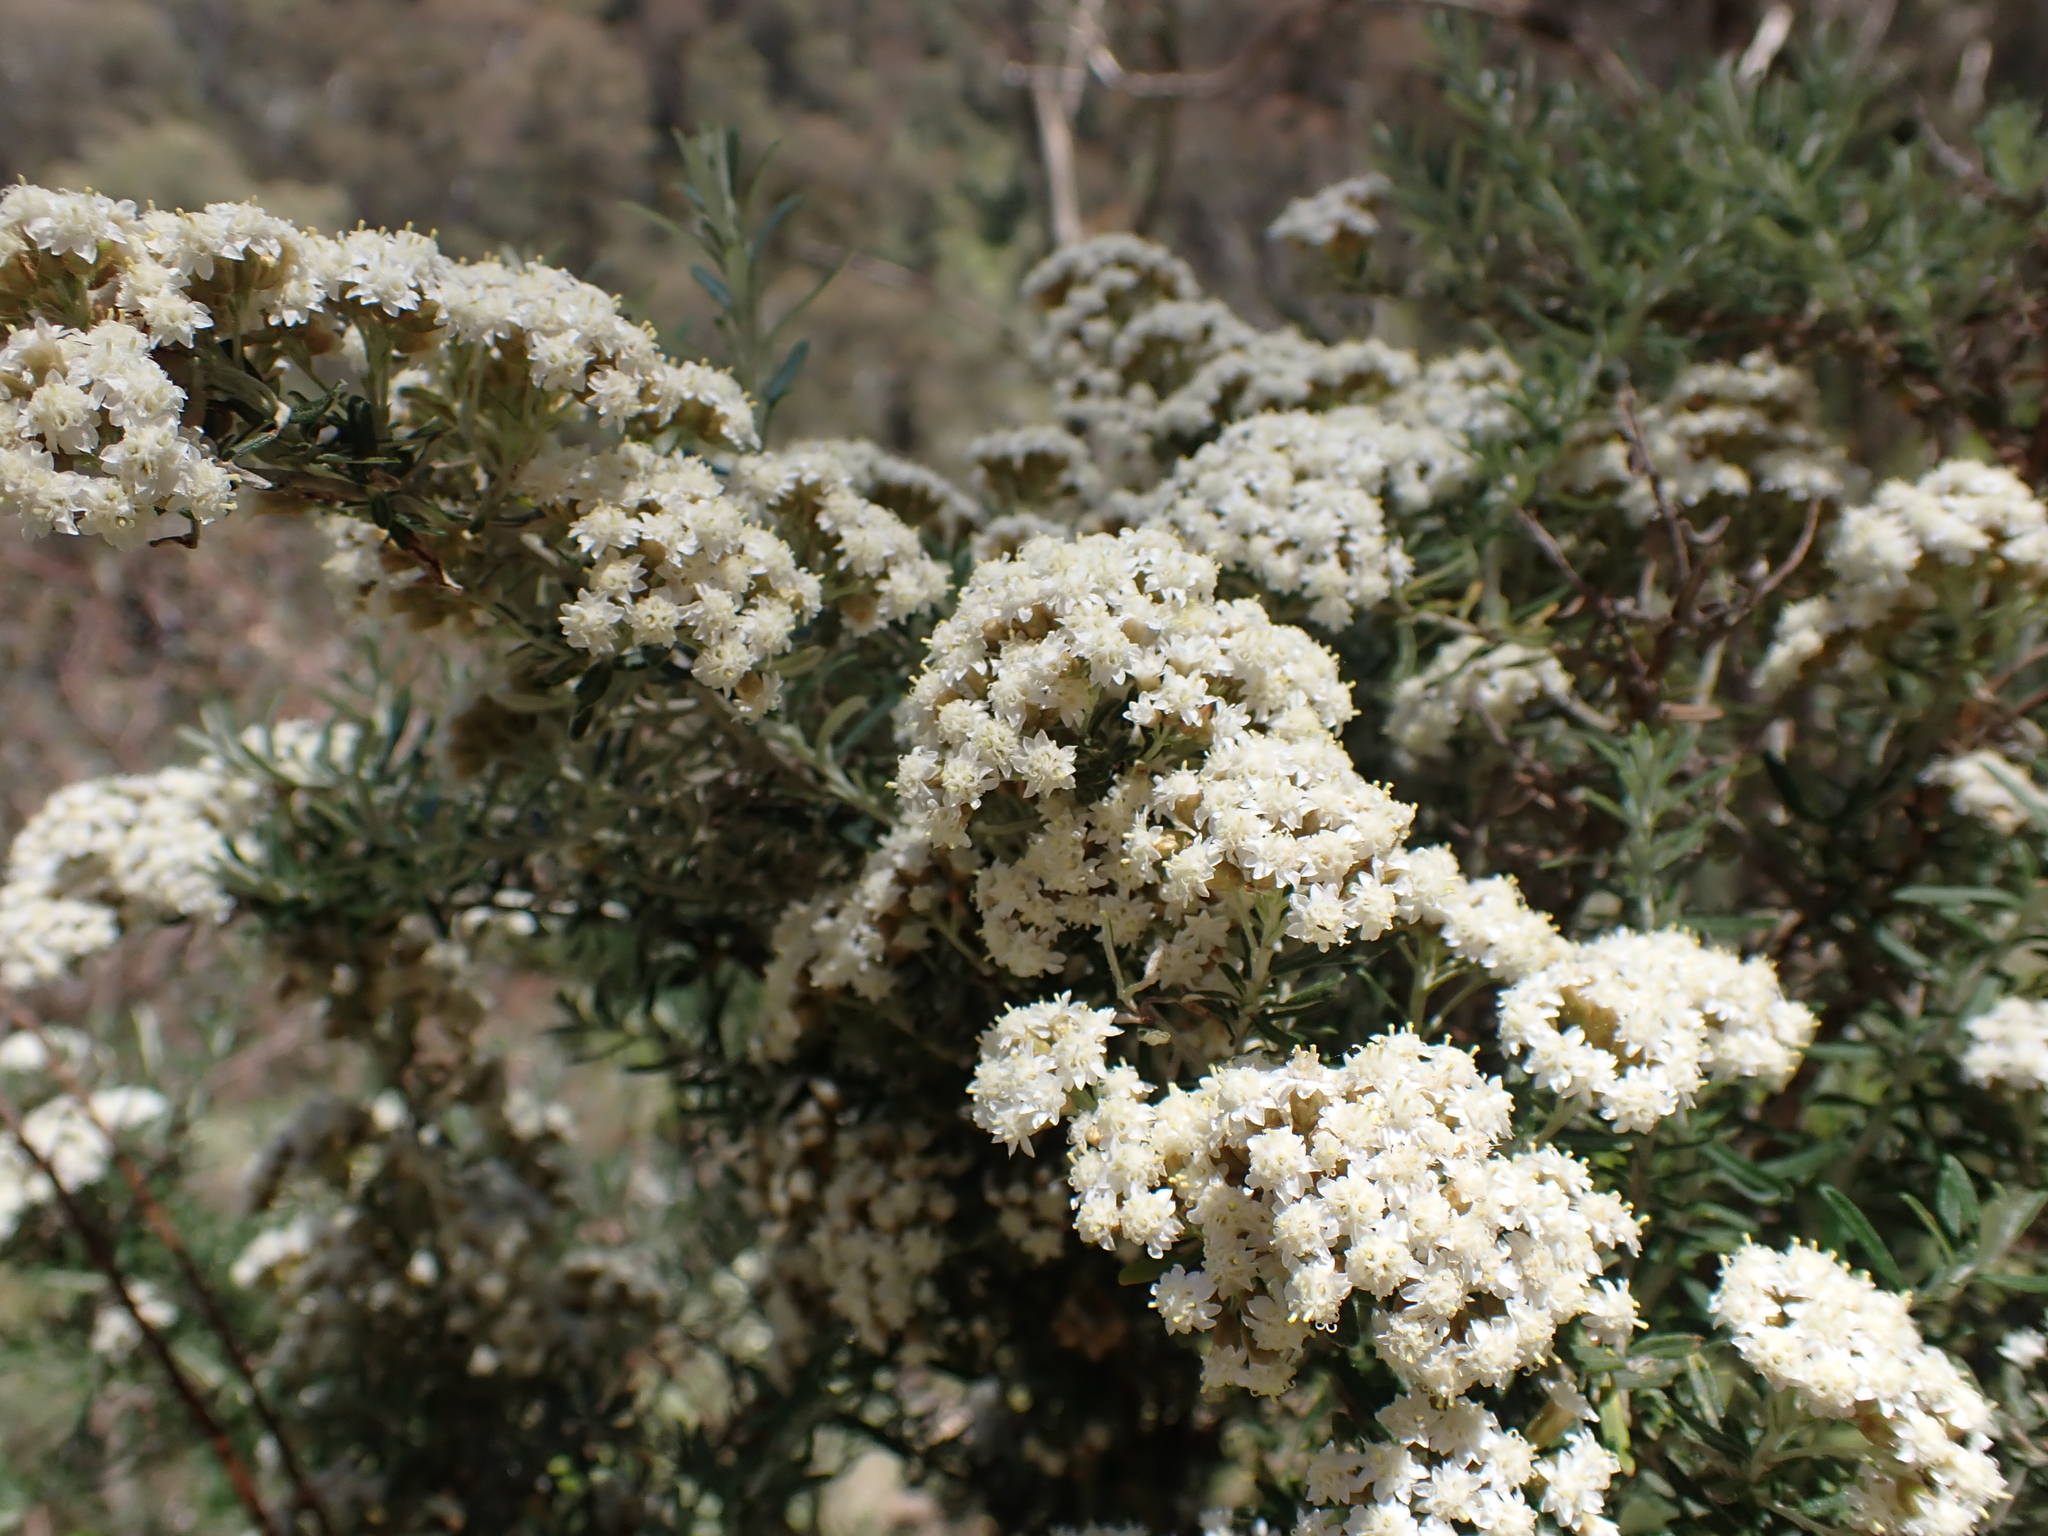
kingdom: Plantae
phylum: Tracheophyta
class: Magnoliopsida
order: Asterales
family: Asteraceae
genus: Ozothamnus
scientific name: Ozothamnus secundiflorus
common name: Cascade everlasting
